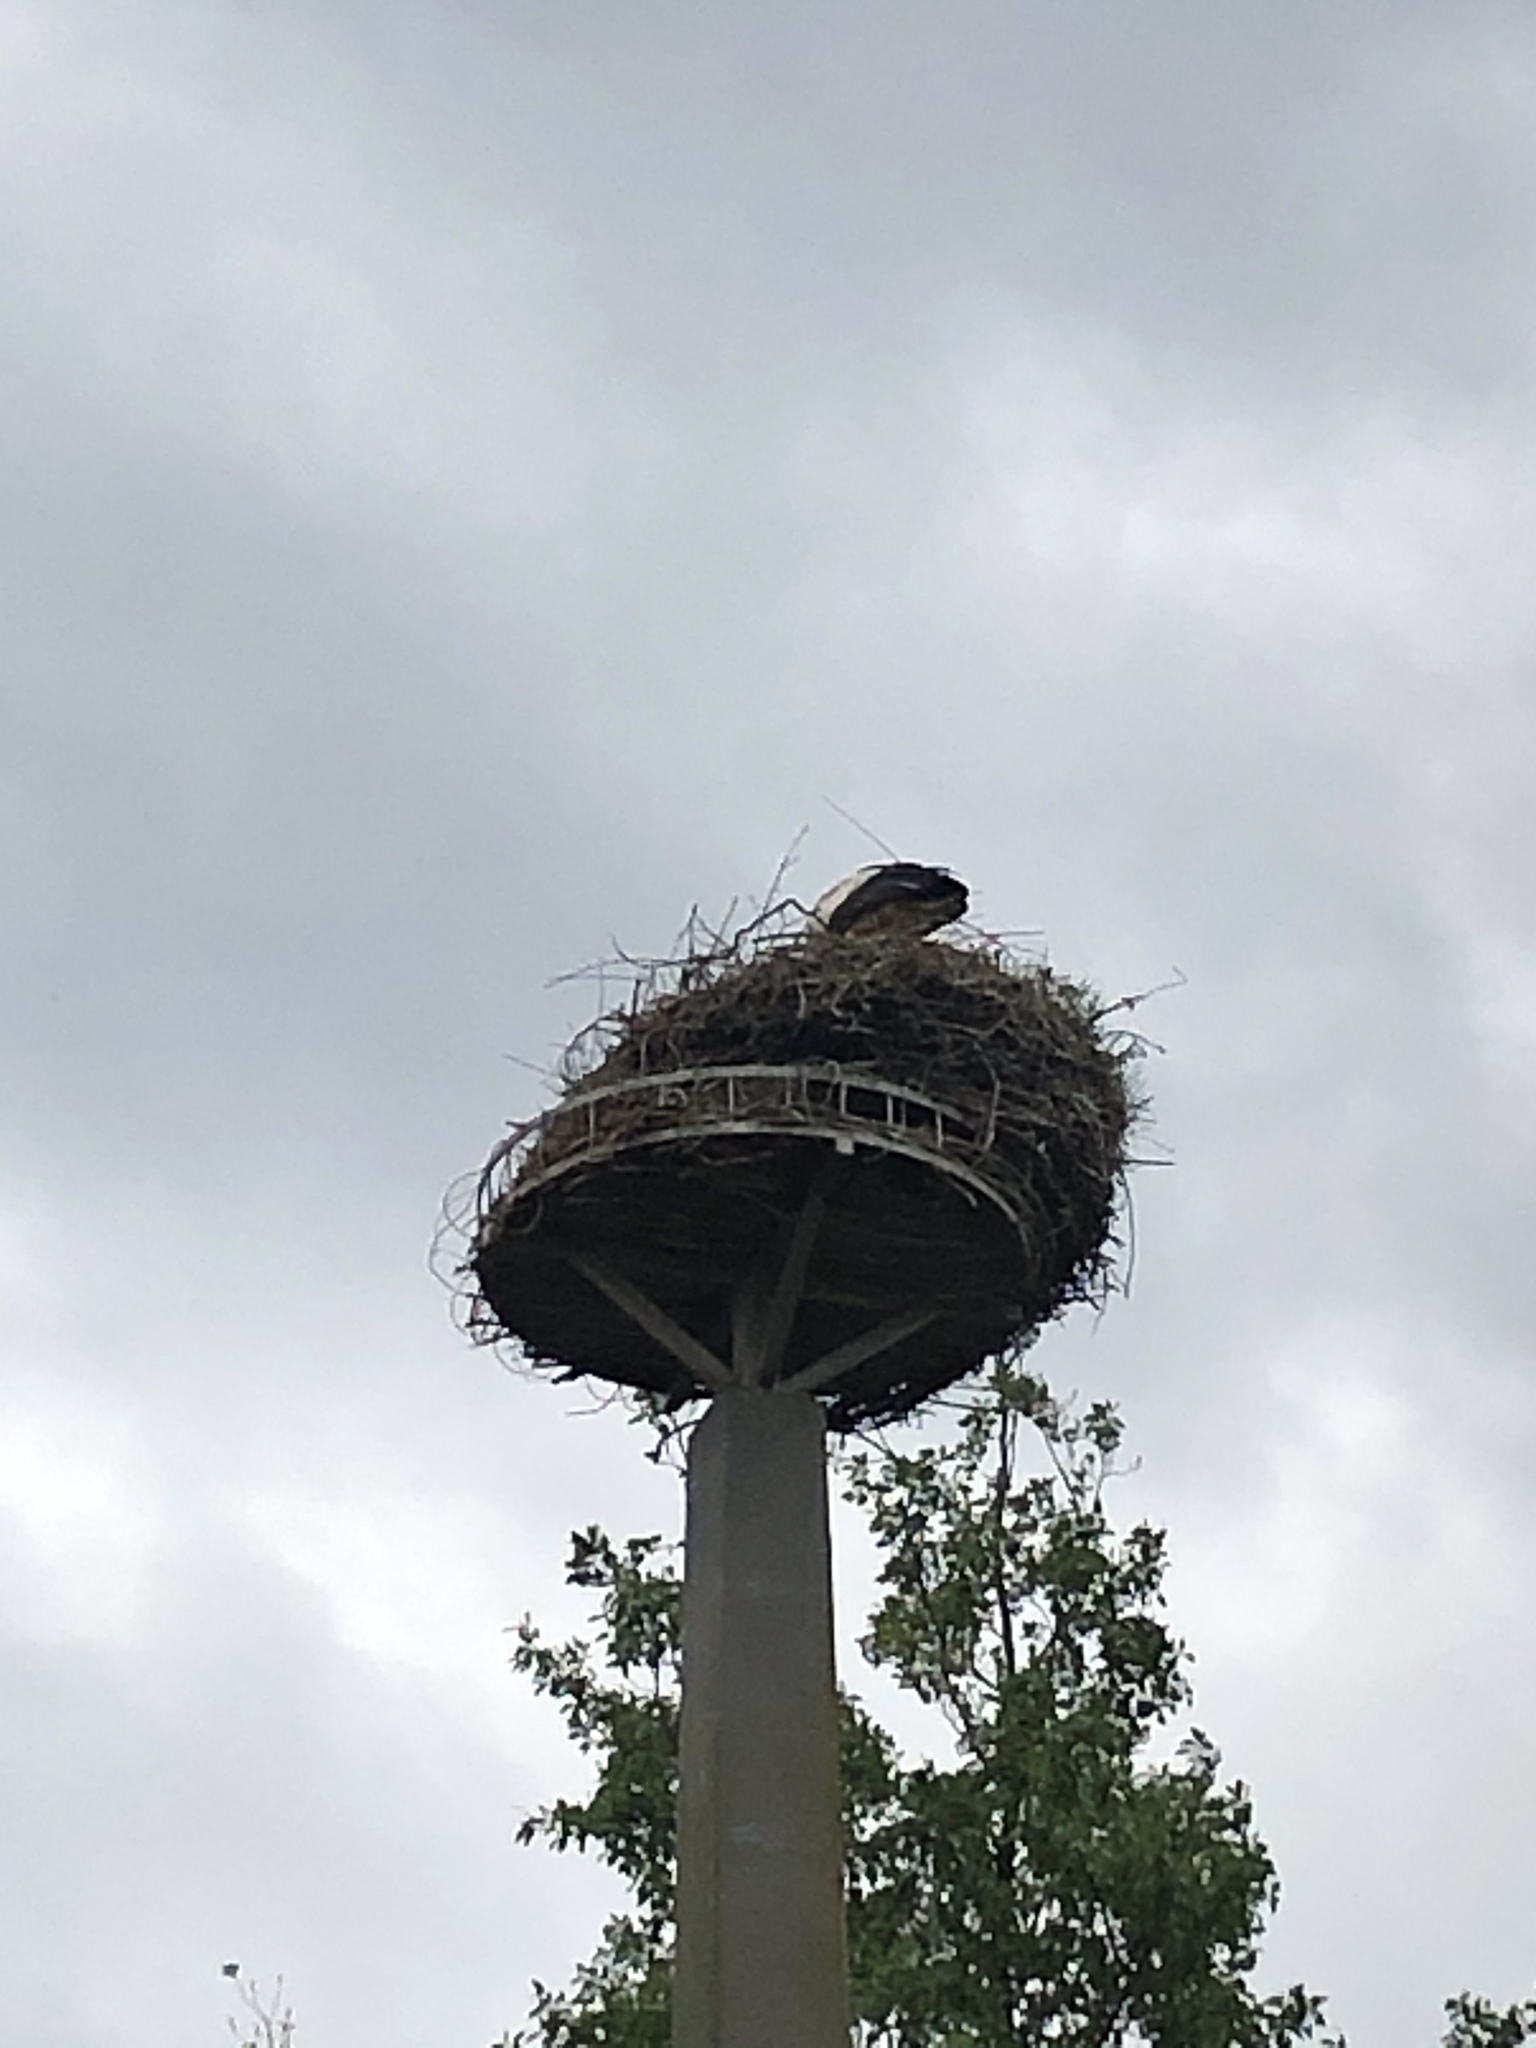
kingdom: Animalia
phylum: Chordata
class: Aves
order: Ciconiiformes
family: Ciconiidae
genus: Ciconia
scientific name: Ciconia ciconia
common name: White stork
